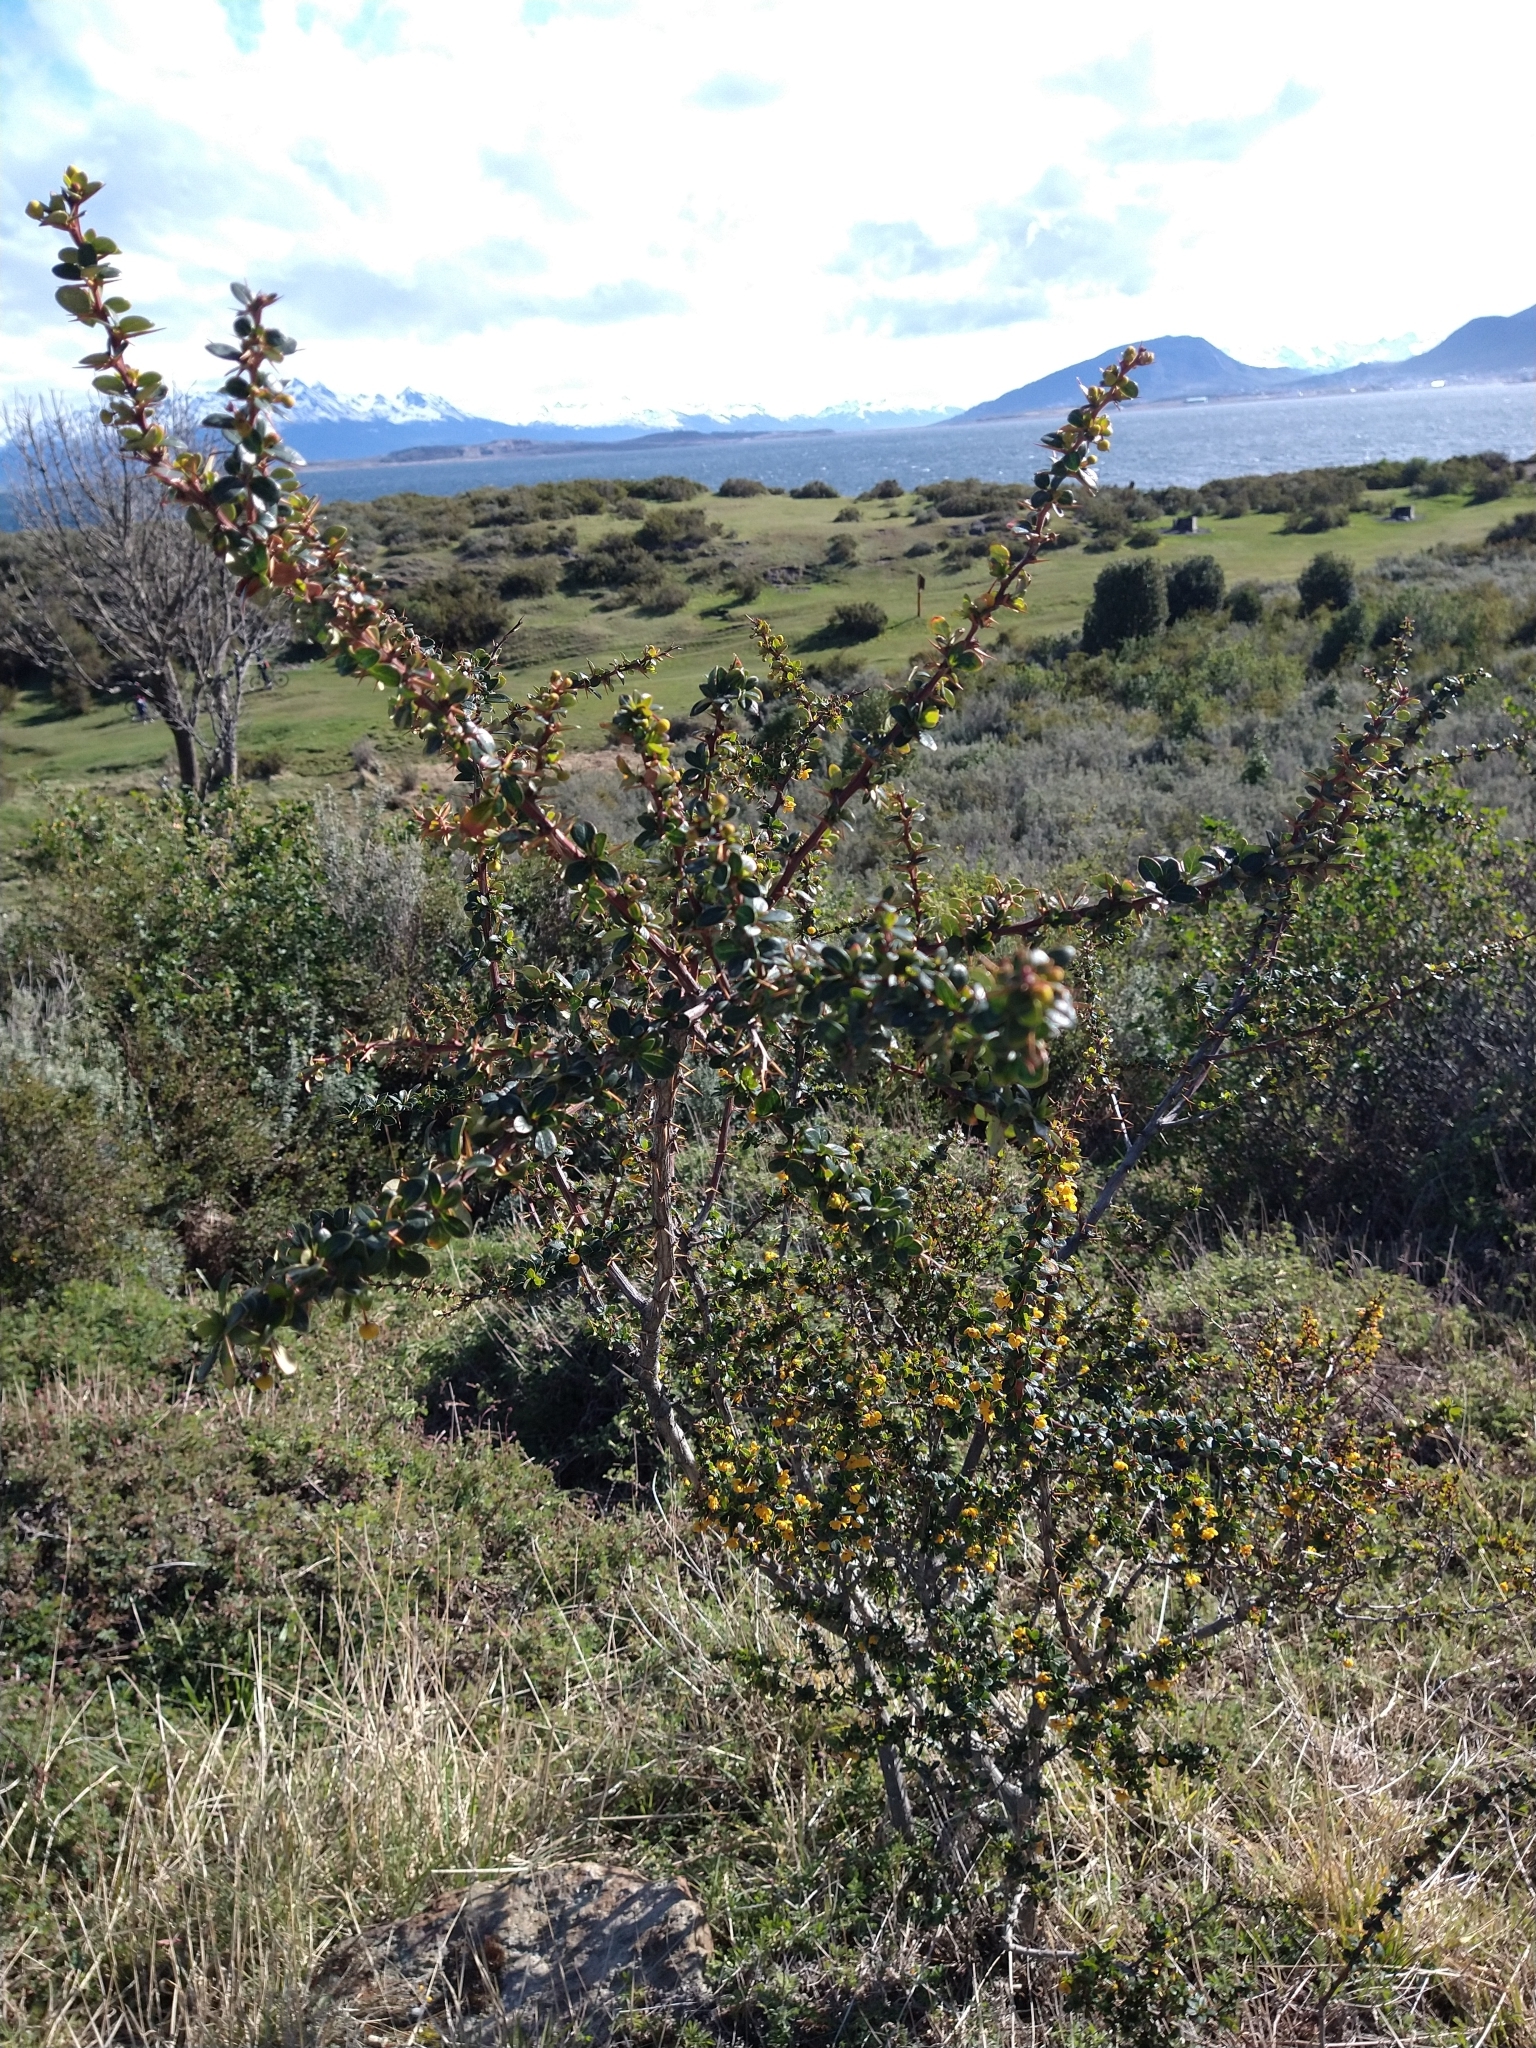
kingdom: Plantae
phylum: Tracheophyta
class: Magnoliopsida
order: Ranunculales
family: Berberidaceae
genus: Berberis
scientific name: Berberis microphylla
